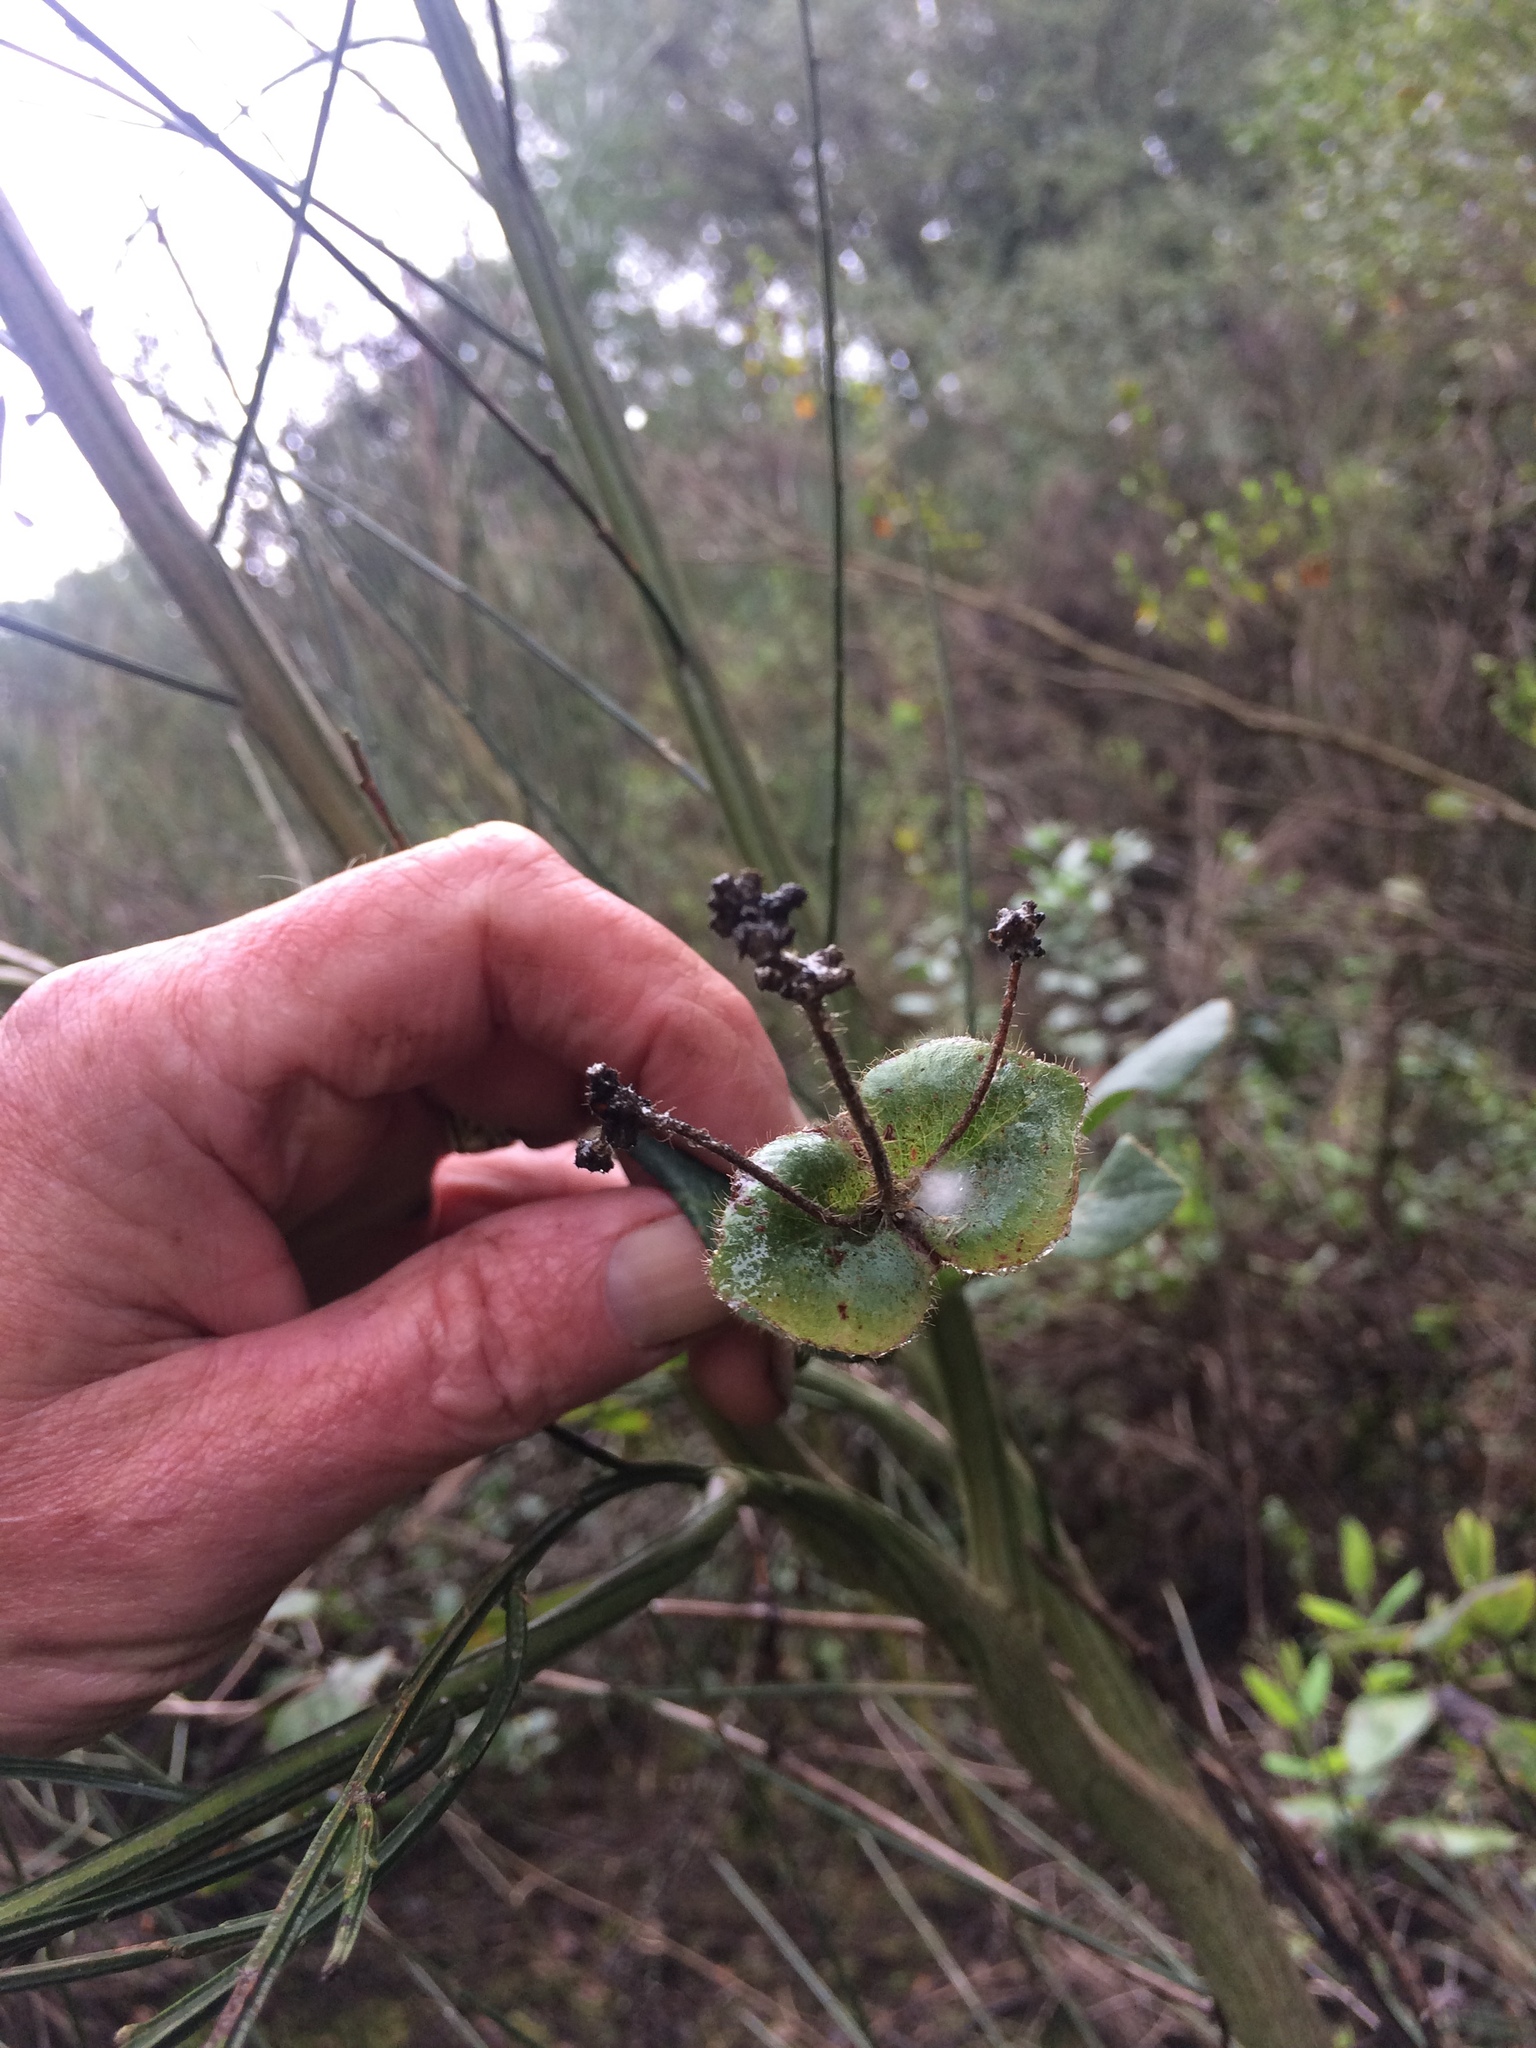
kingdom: Plantae
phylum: Tracheophyta
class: Magnoliopsida
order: Dipsacales
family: Caprifoliaceae
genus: Lonicera
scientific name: Lonicera hispidula
